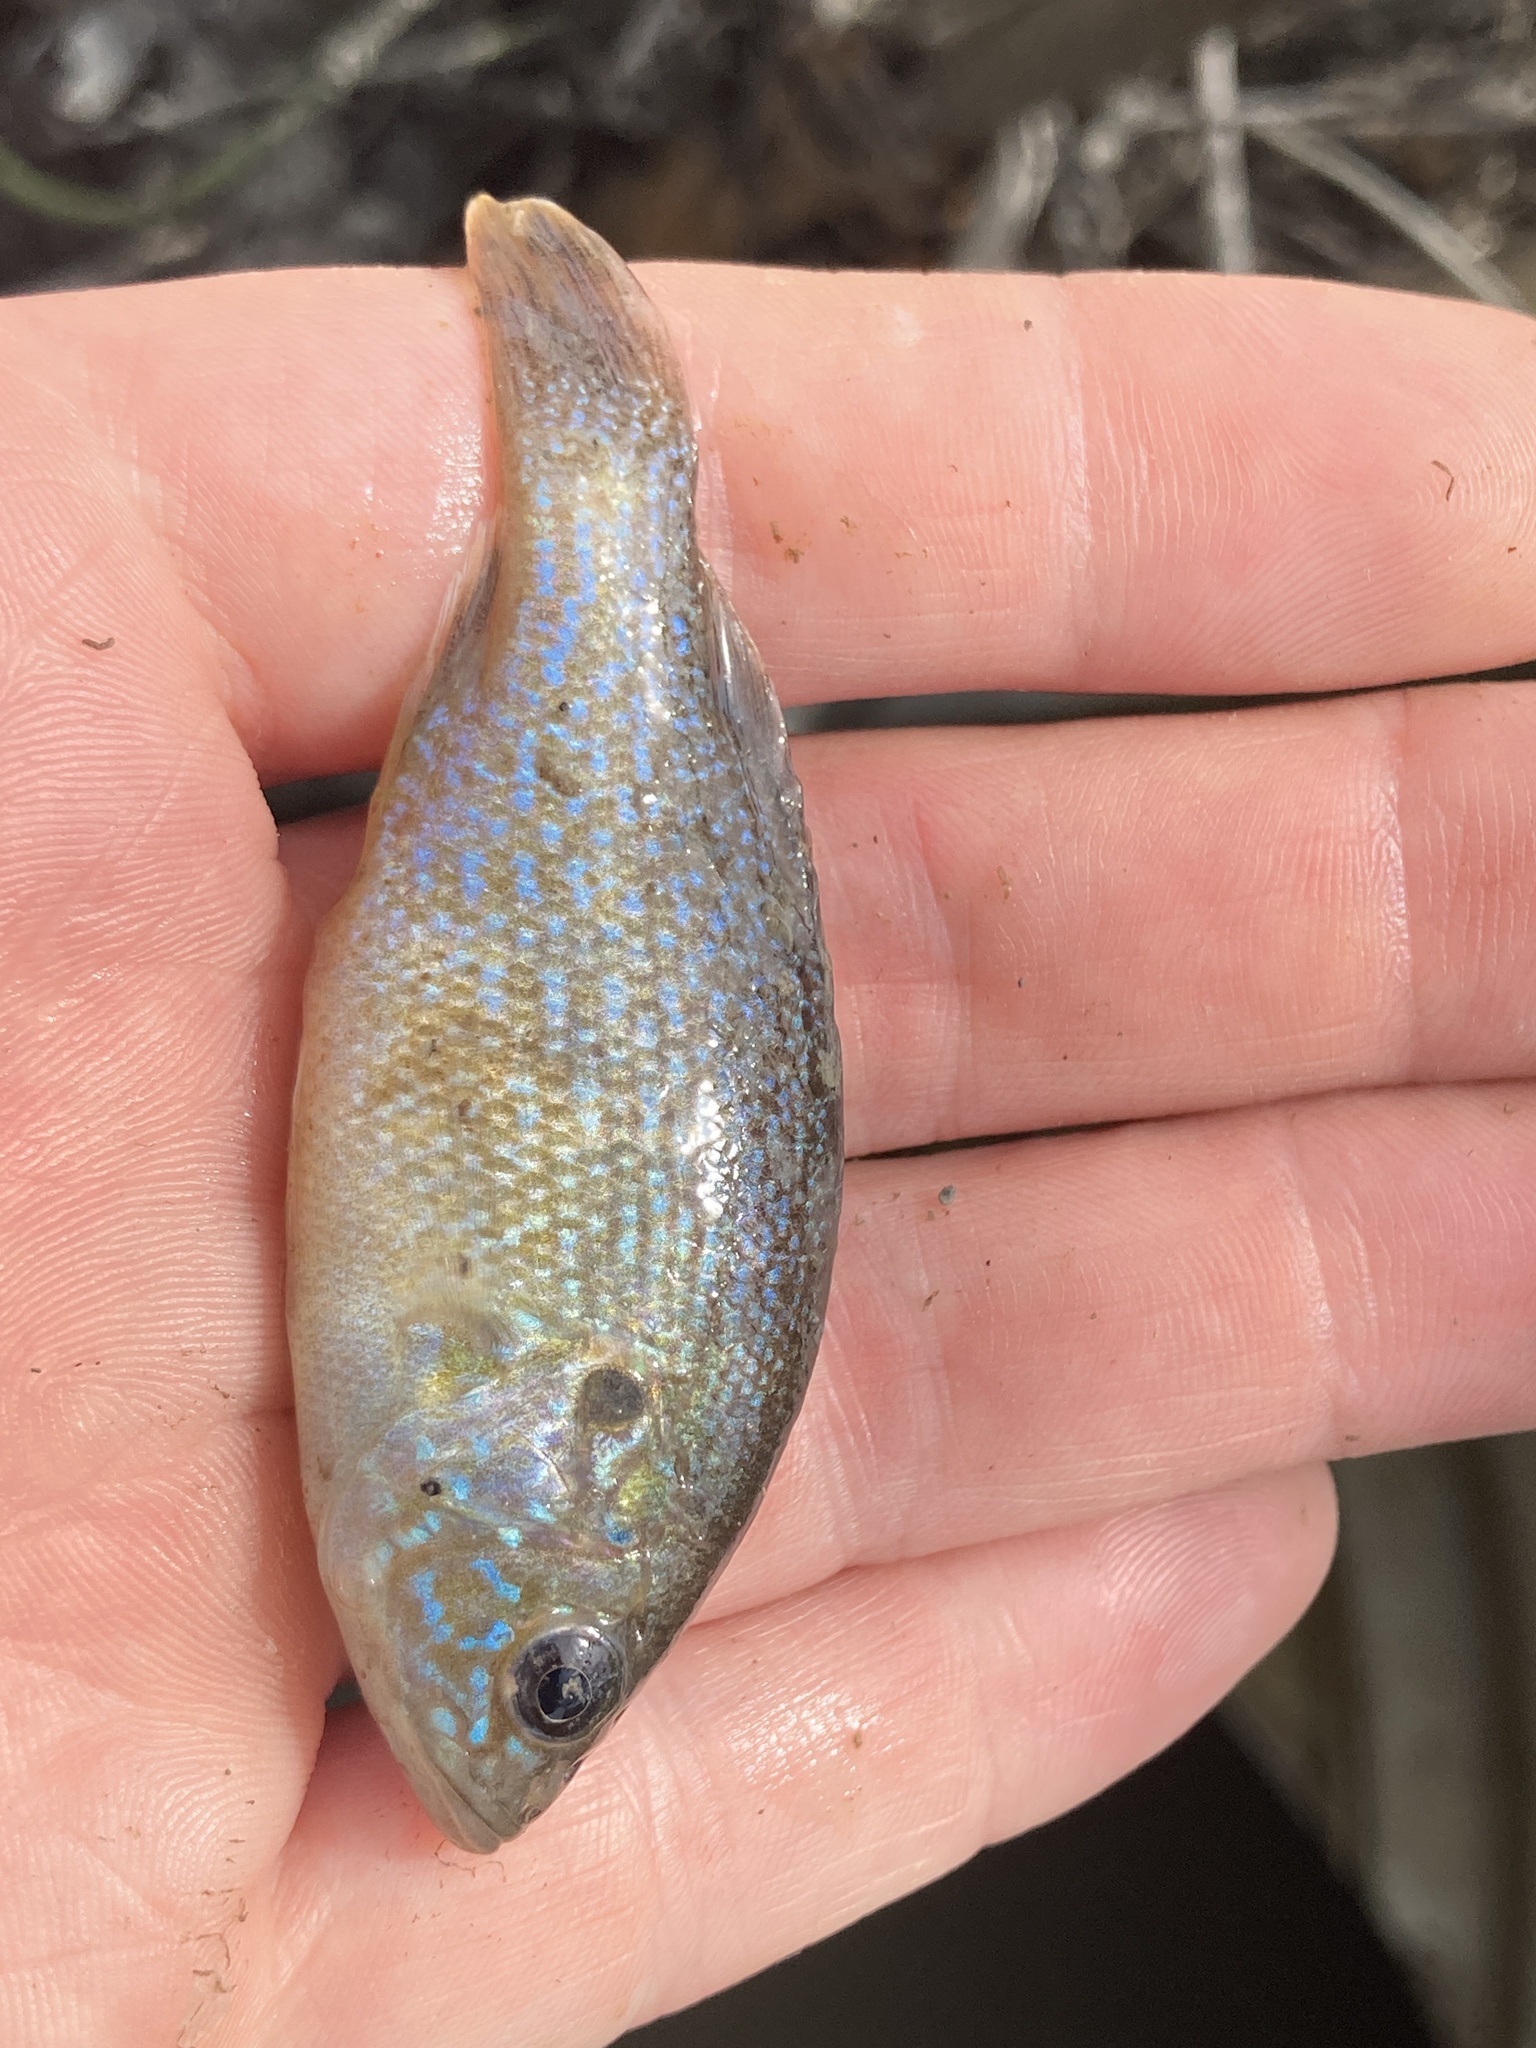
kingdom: Animalia
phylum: Chordata
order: Perciformes
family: Centrarchidae
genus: Lepomis
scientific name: Lepomis cyanellus
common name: Green sunfish
